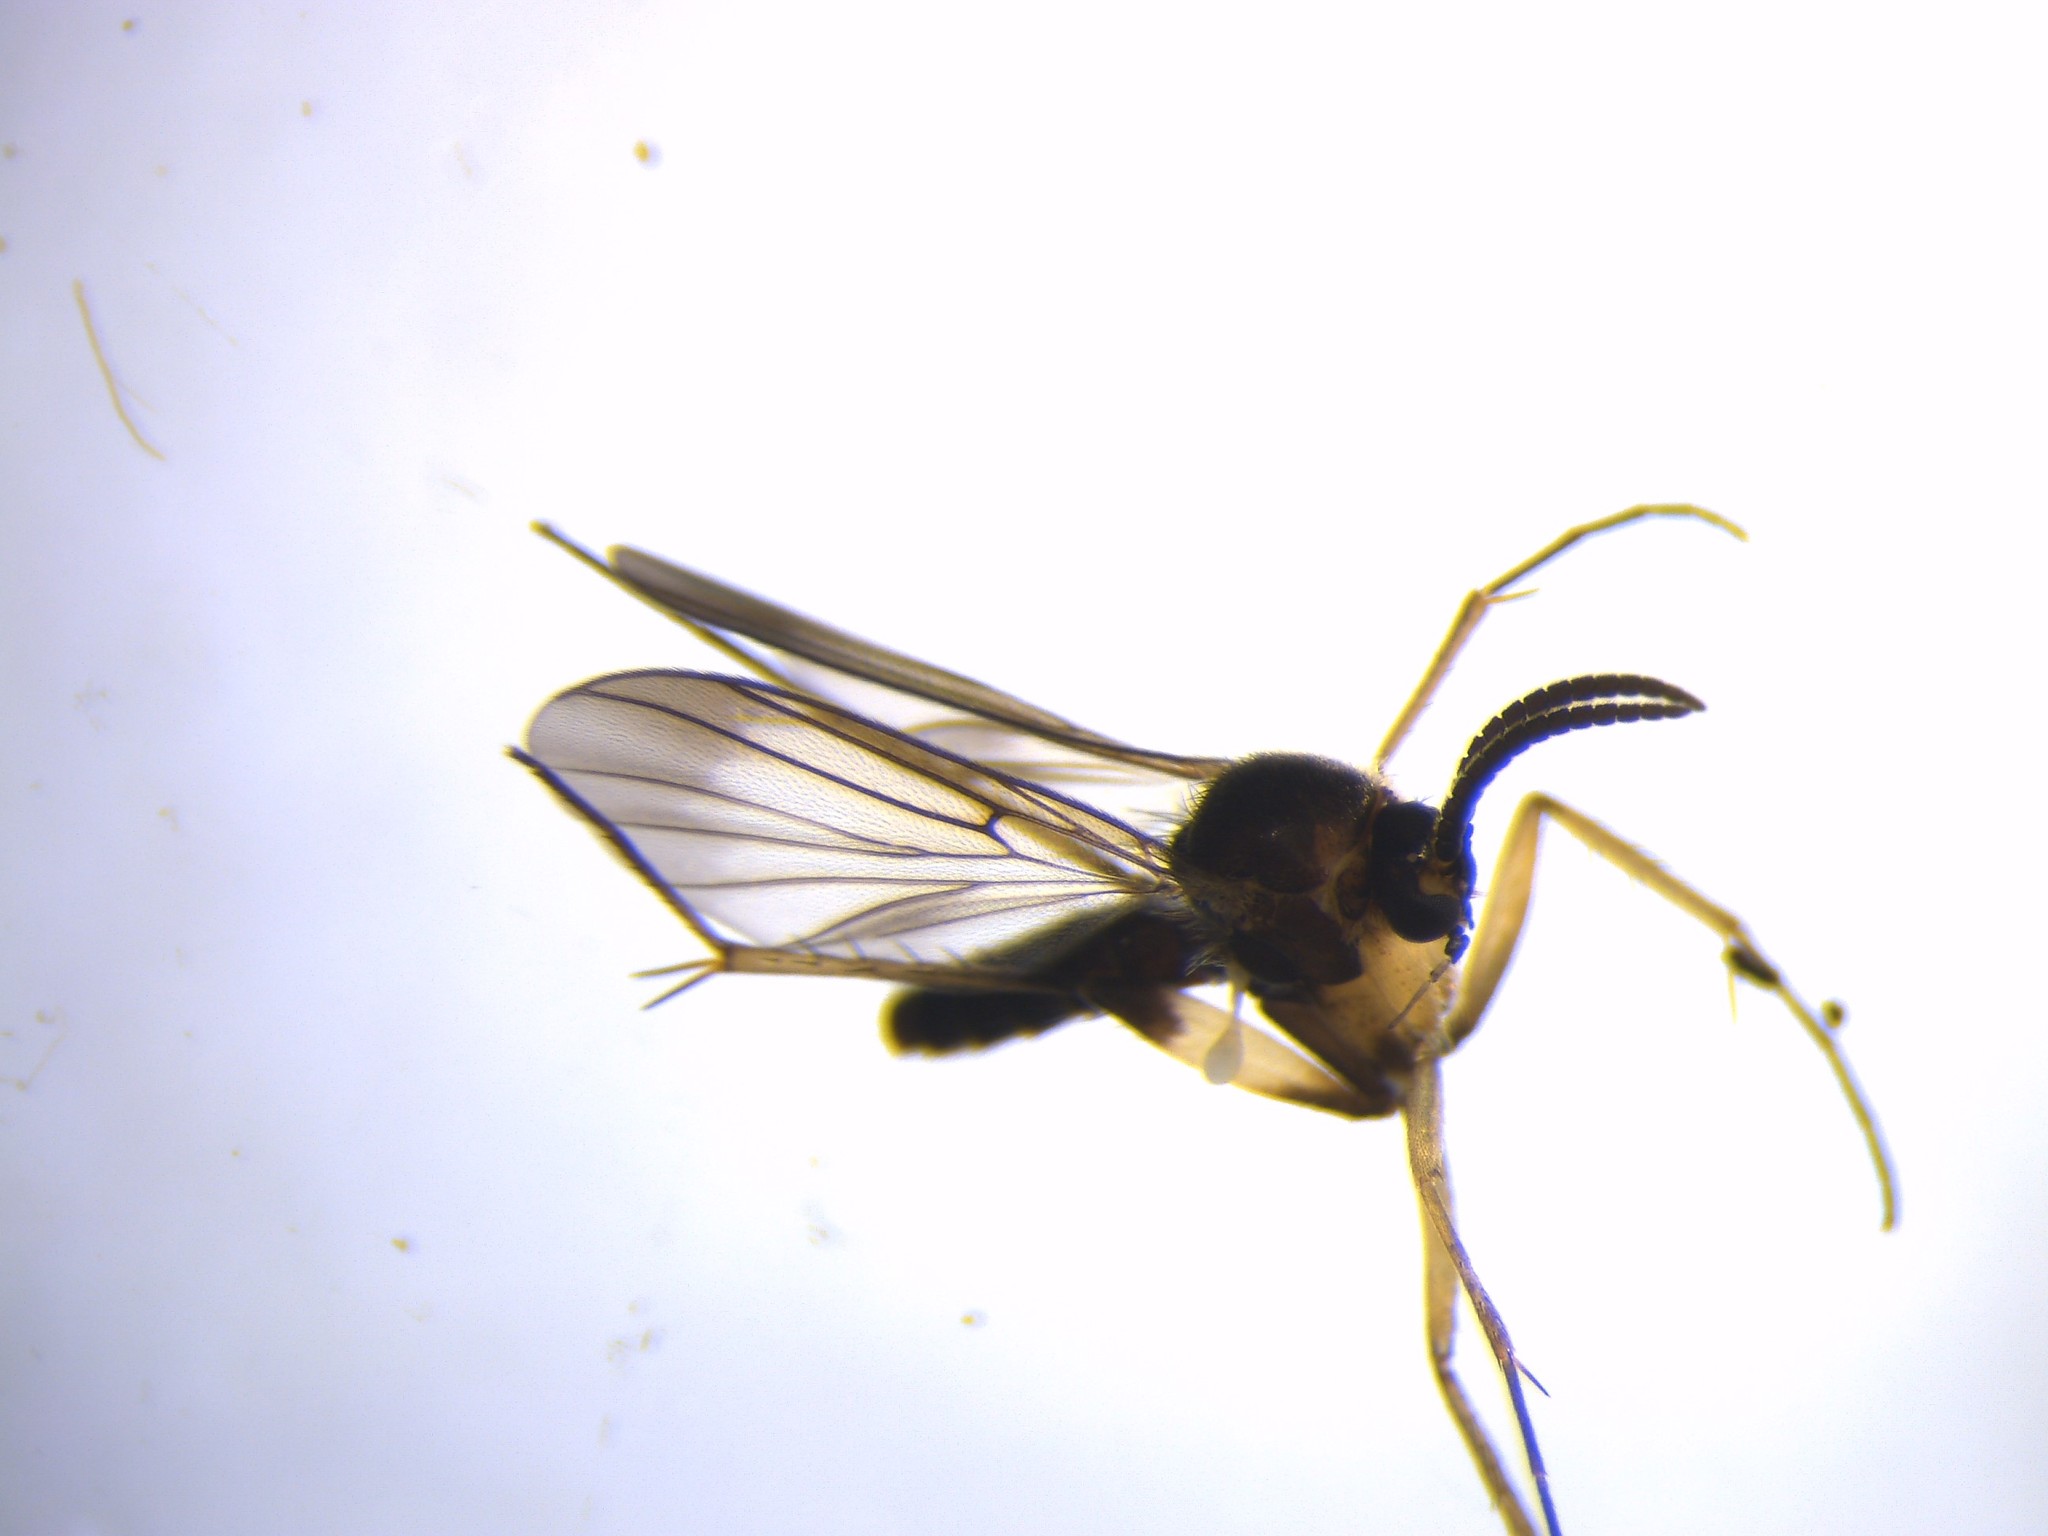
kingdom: Animalia
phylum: Arthropoda
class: Insecta
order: Diptera
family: Mycetophilidae
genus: Allocotocera
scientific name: Allocotocera dilatala
